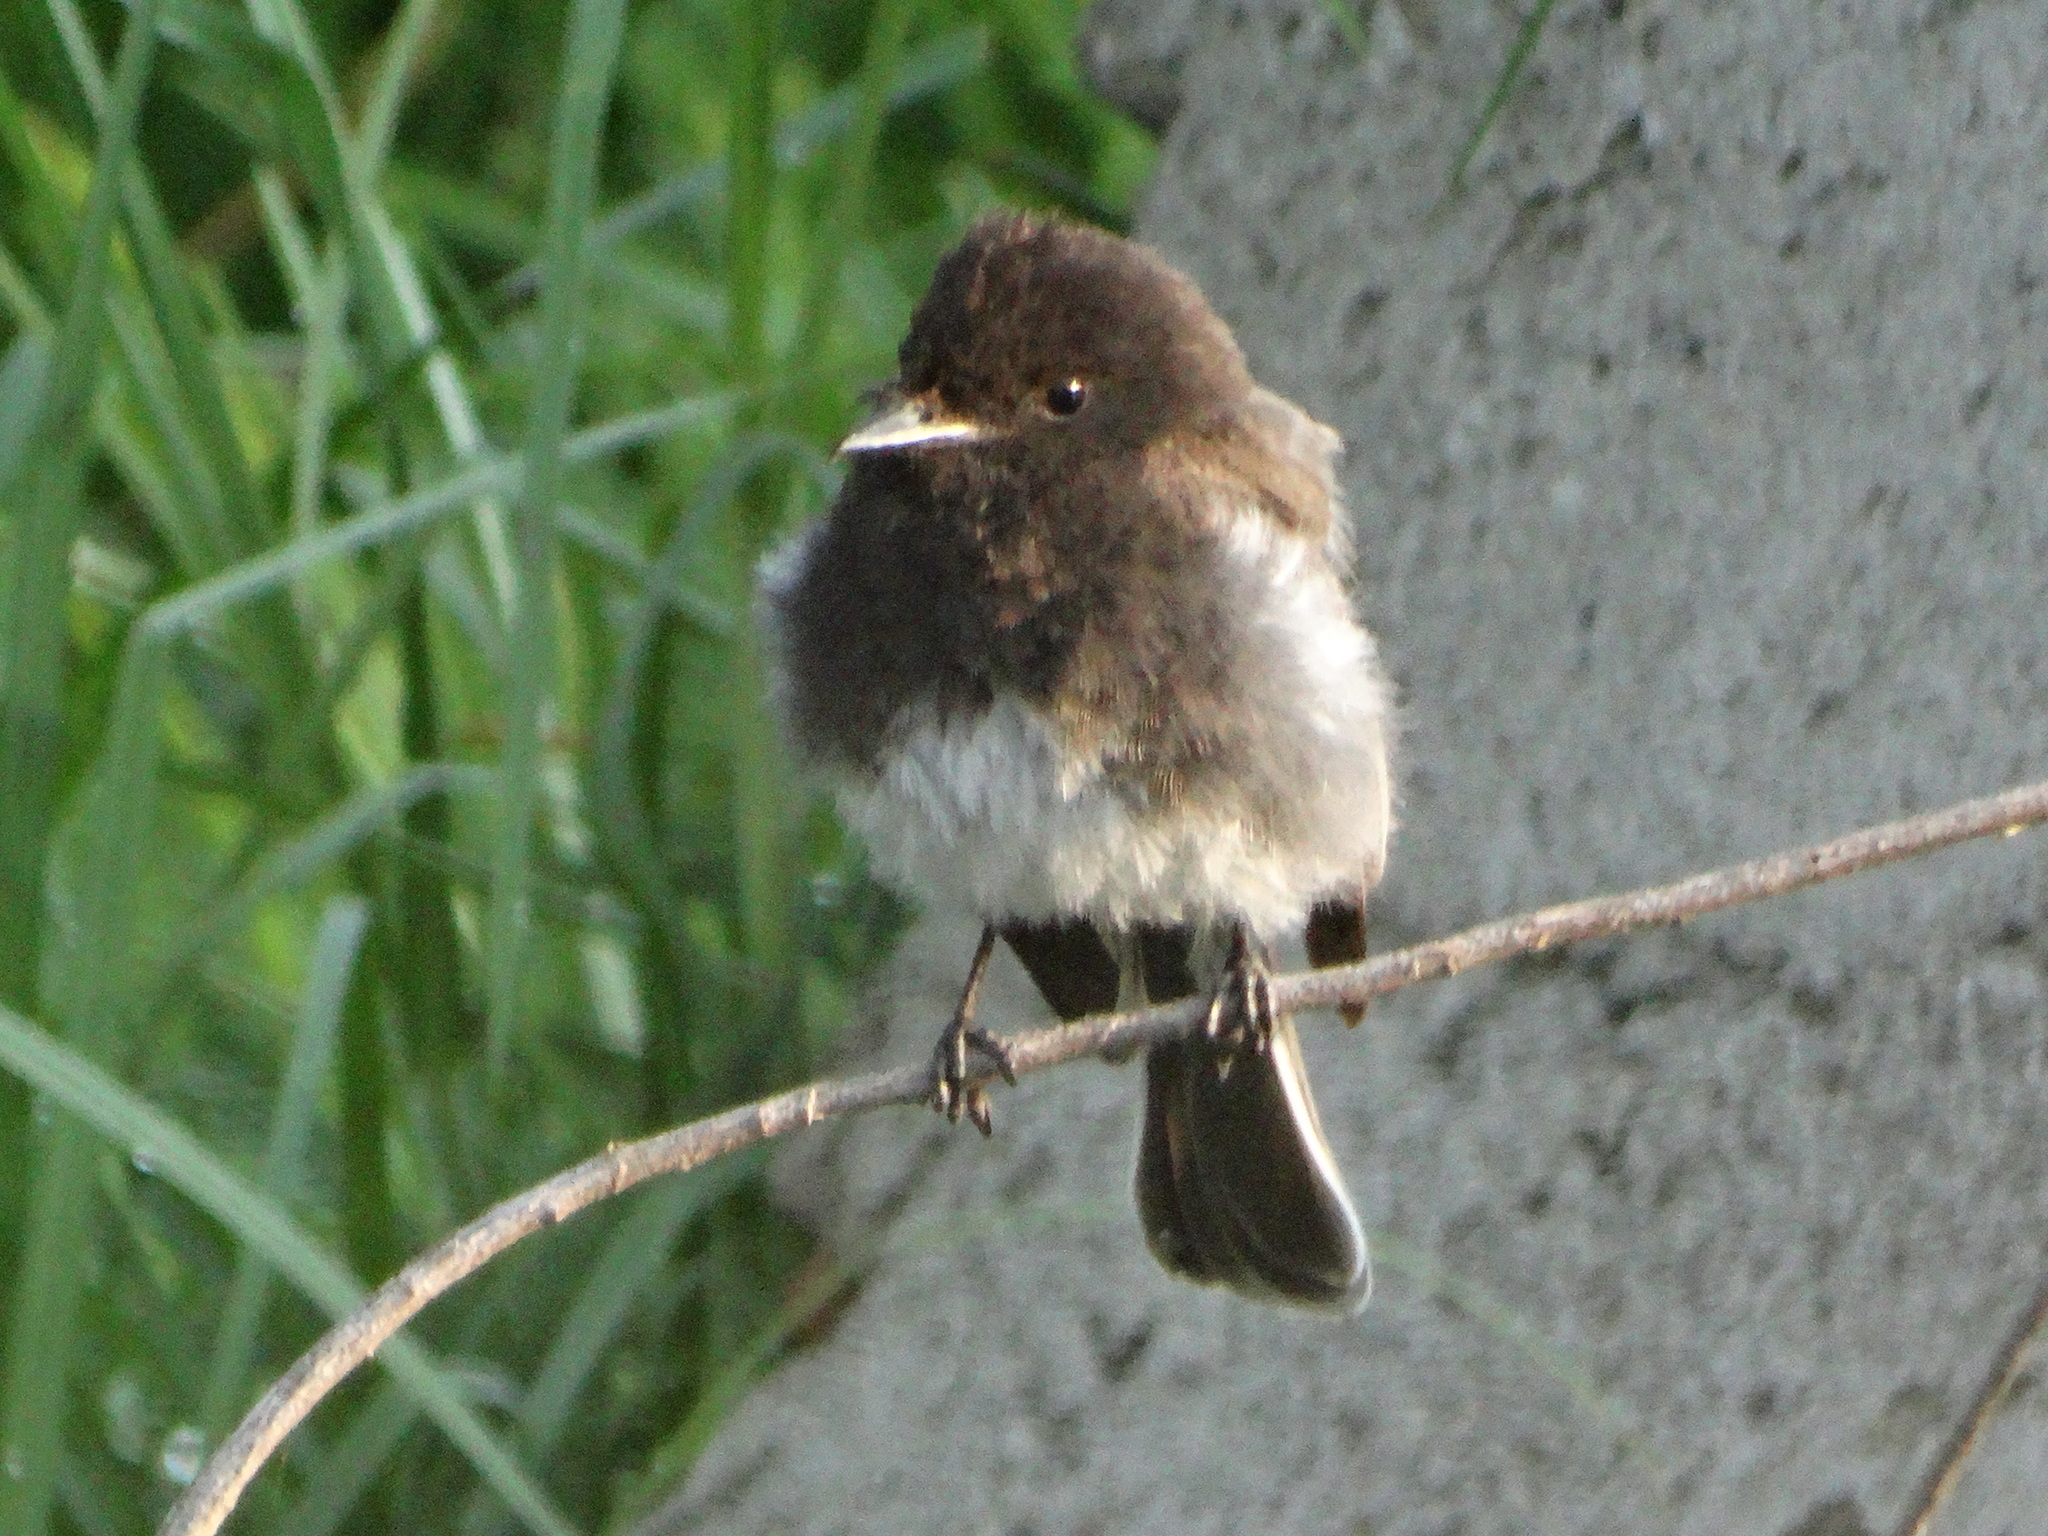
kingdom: Animalia
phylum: Chordata
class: Aves
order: Passeriformes
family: Tyrannidae
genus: Sayornis
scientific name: Sayornis nigricans
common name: Black phoebe
